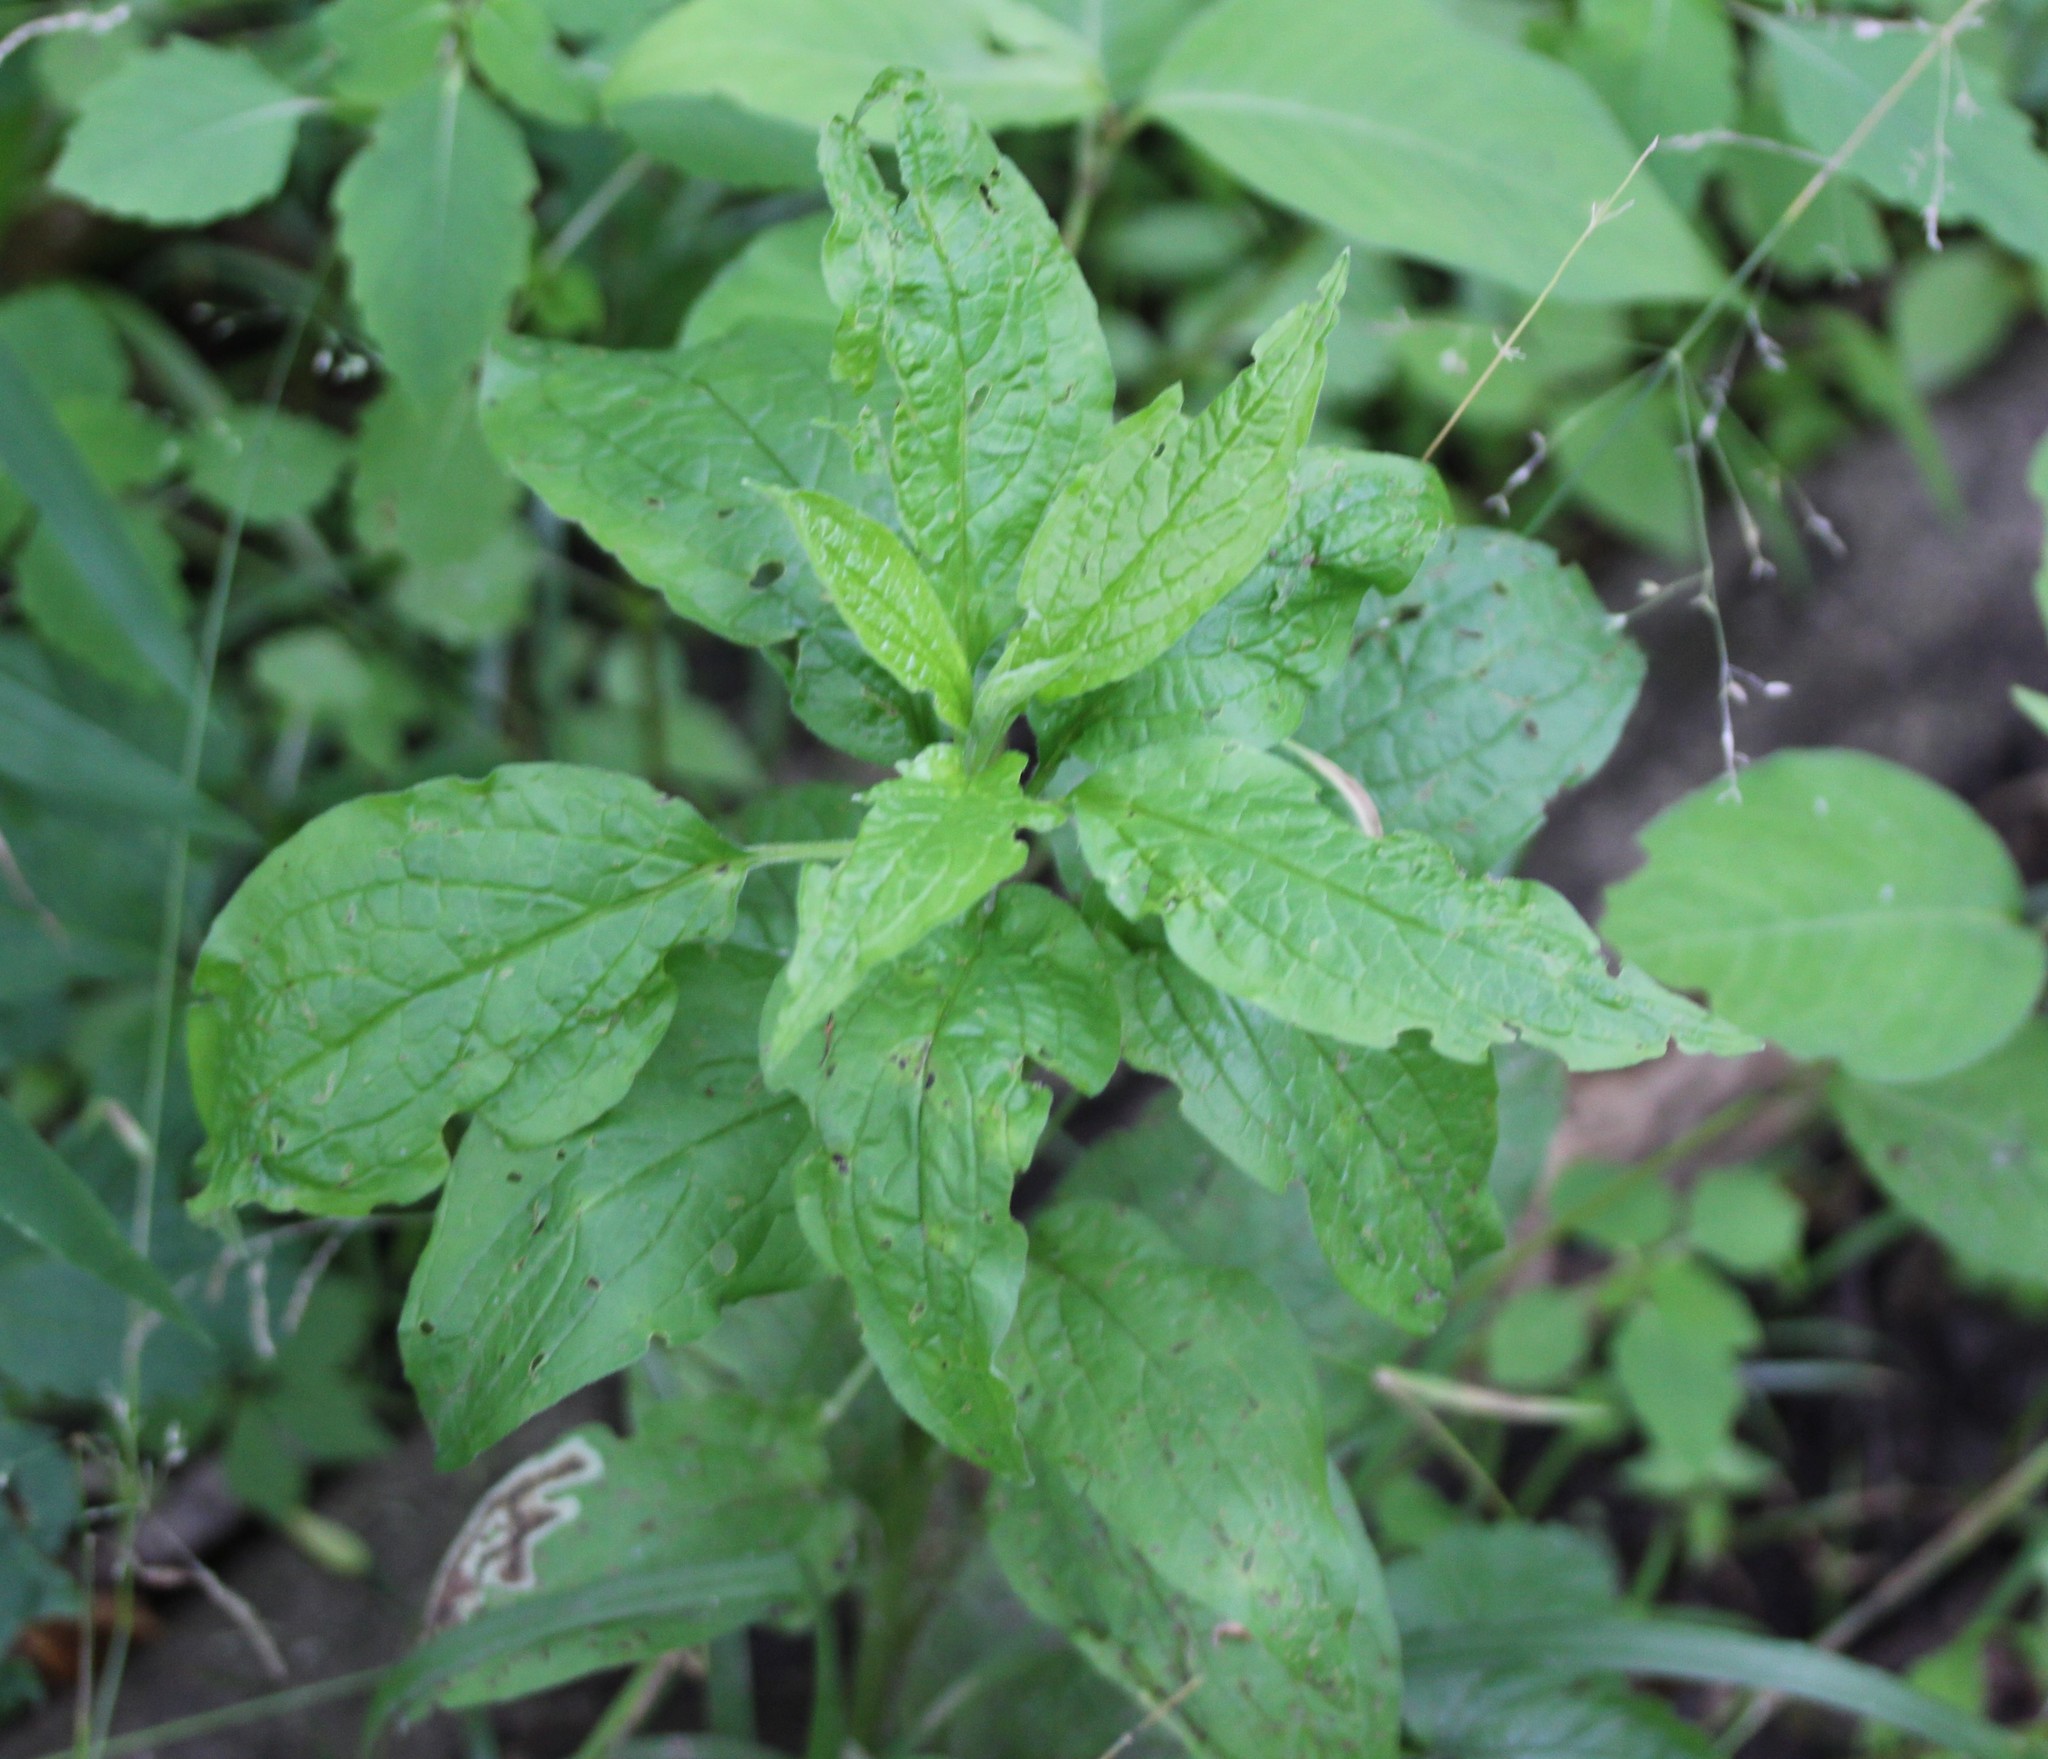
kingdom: Plantae
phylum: Tracheophyta
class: Magnoliopsida
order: Boraginales
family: Boraginaceae
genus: Hackelia
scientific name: Hackelia virginiana
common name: Beggar's-lice
